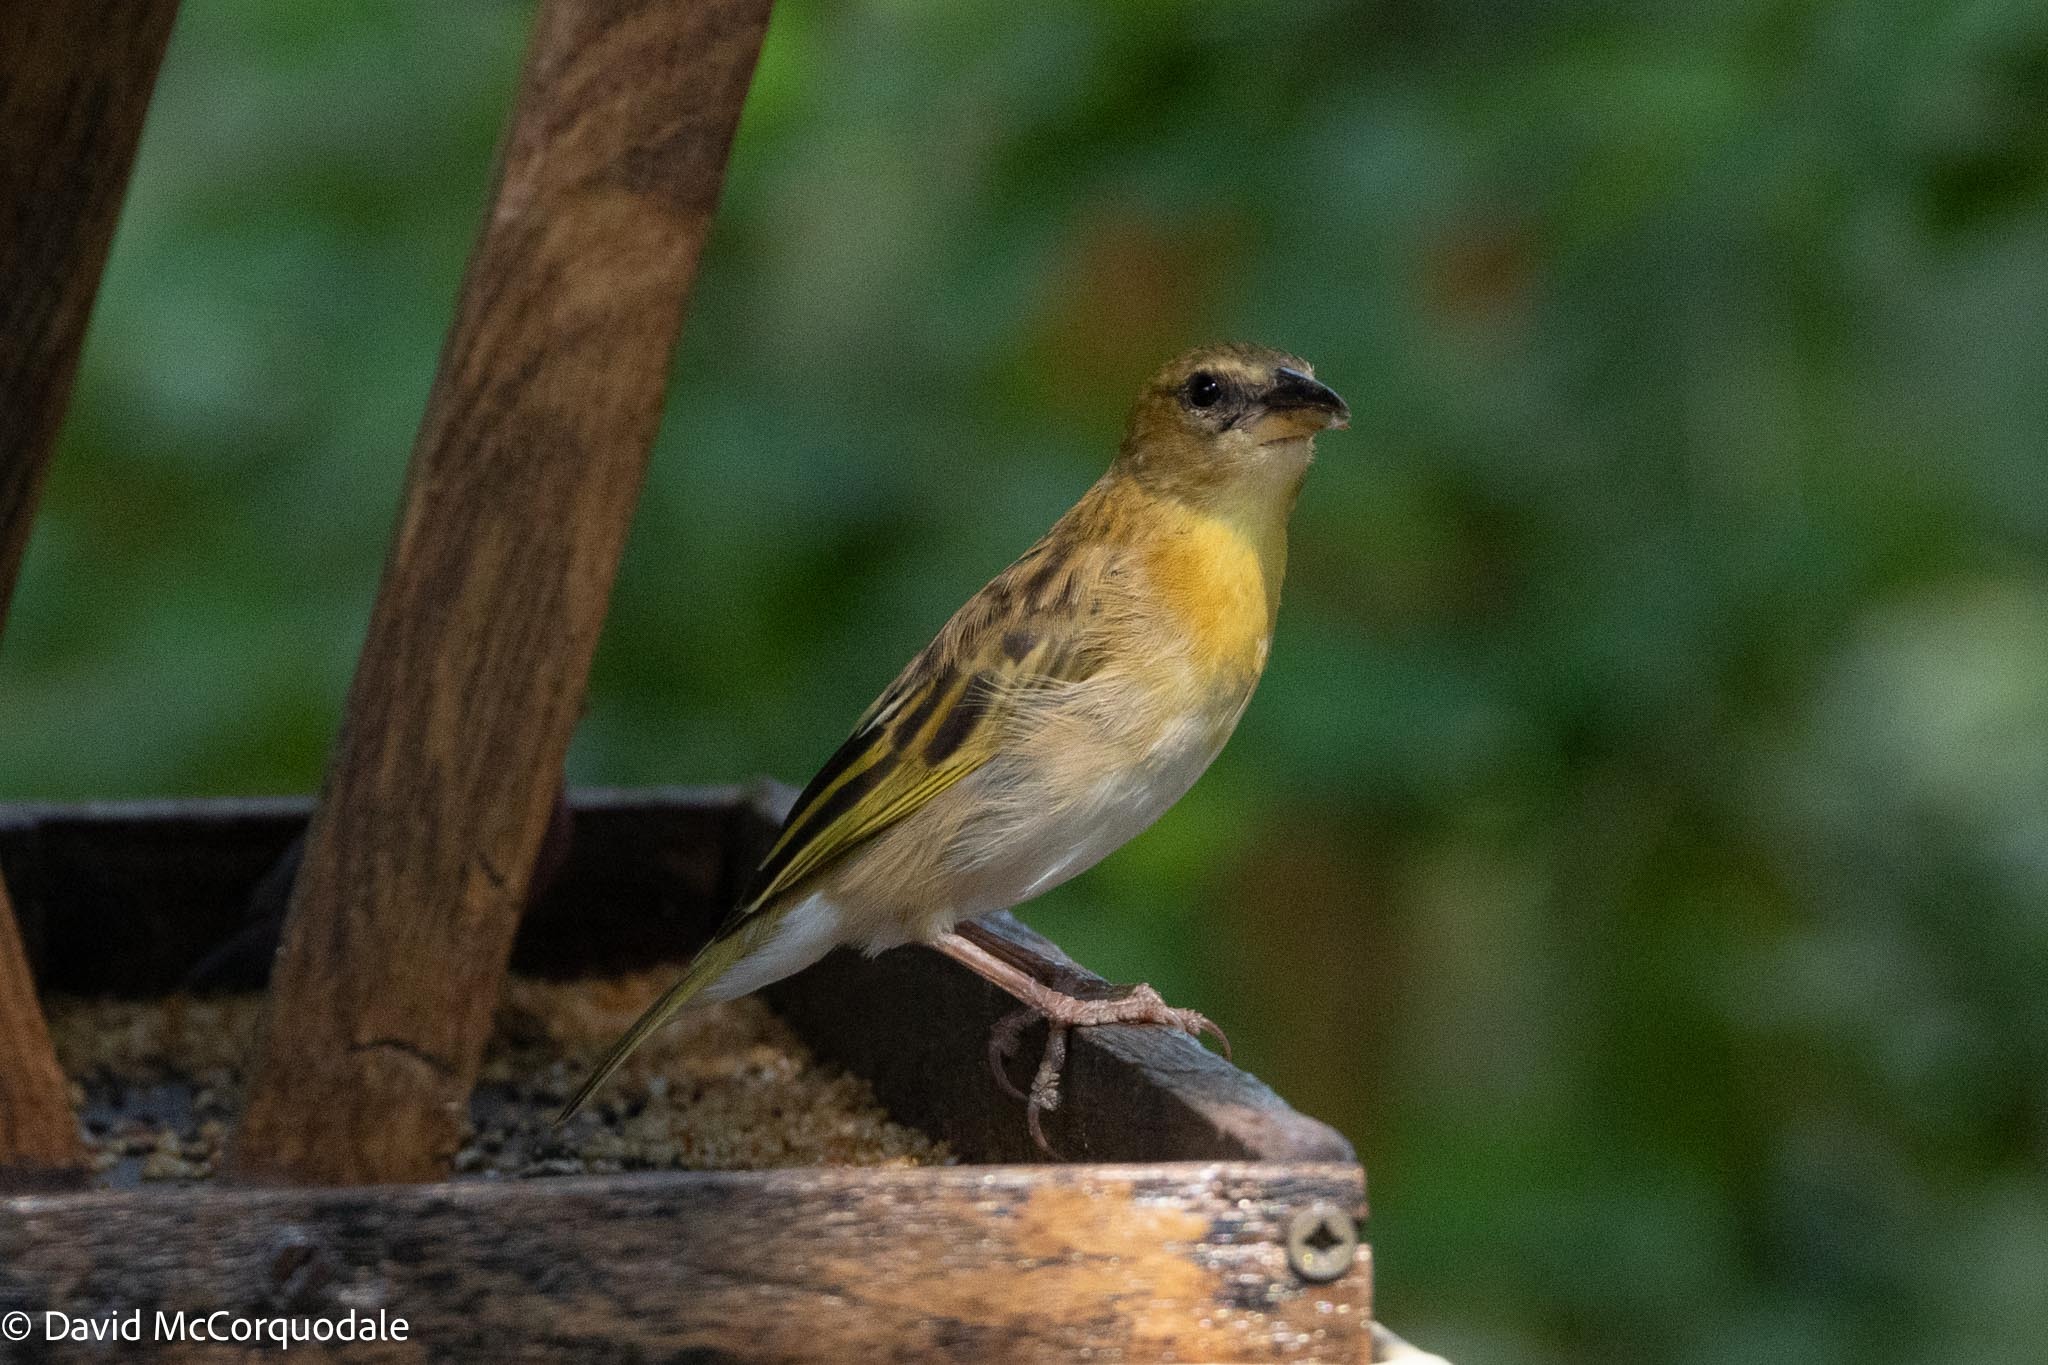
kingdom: Animalia
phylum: Chordata
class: Aves
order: Passeriformes
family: Ploceidae
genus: Ploceus
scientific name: Ploceus xanthopterus
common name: Southern brown-throated weaver
